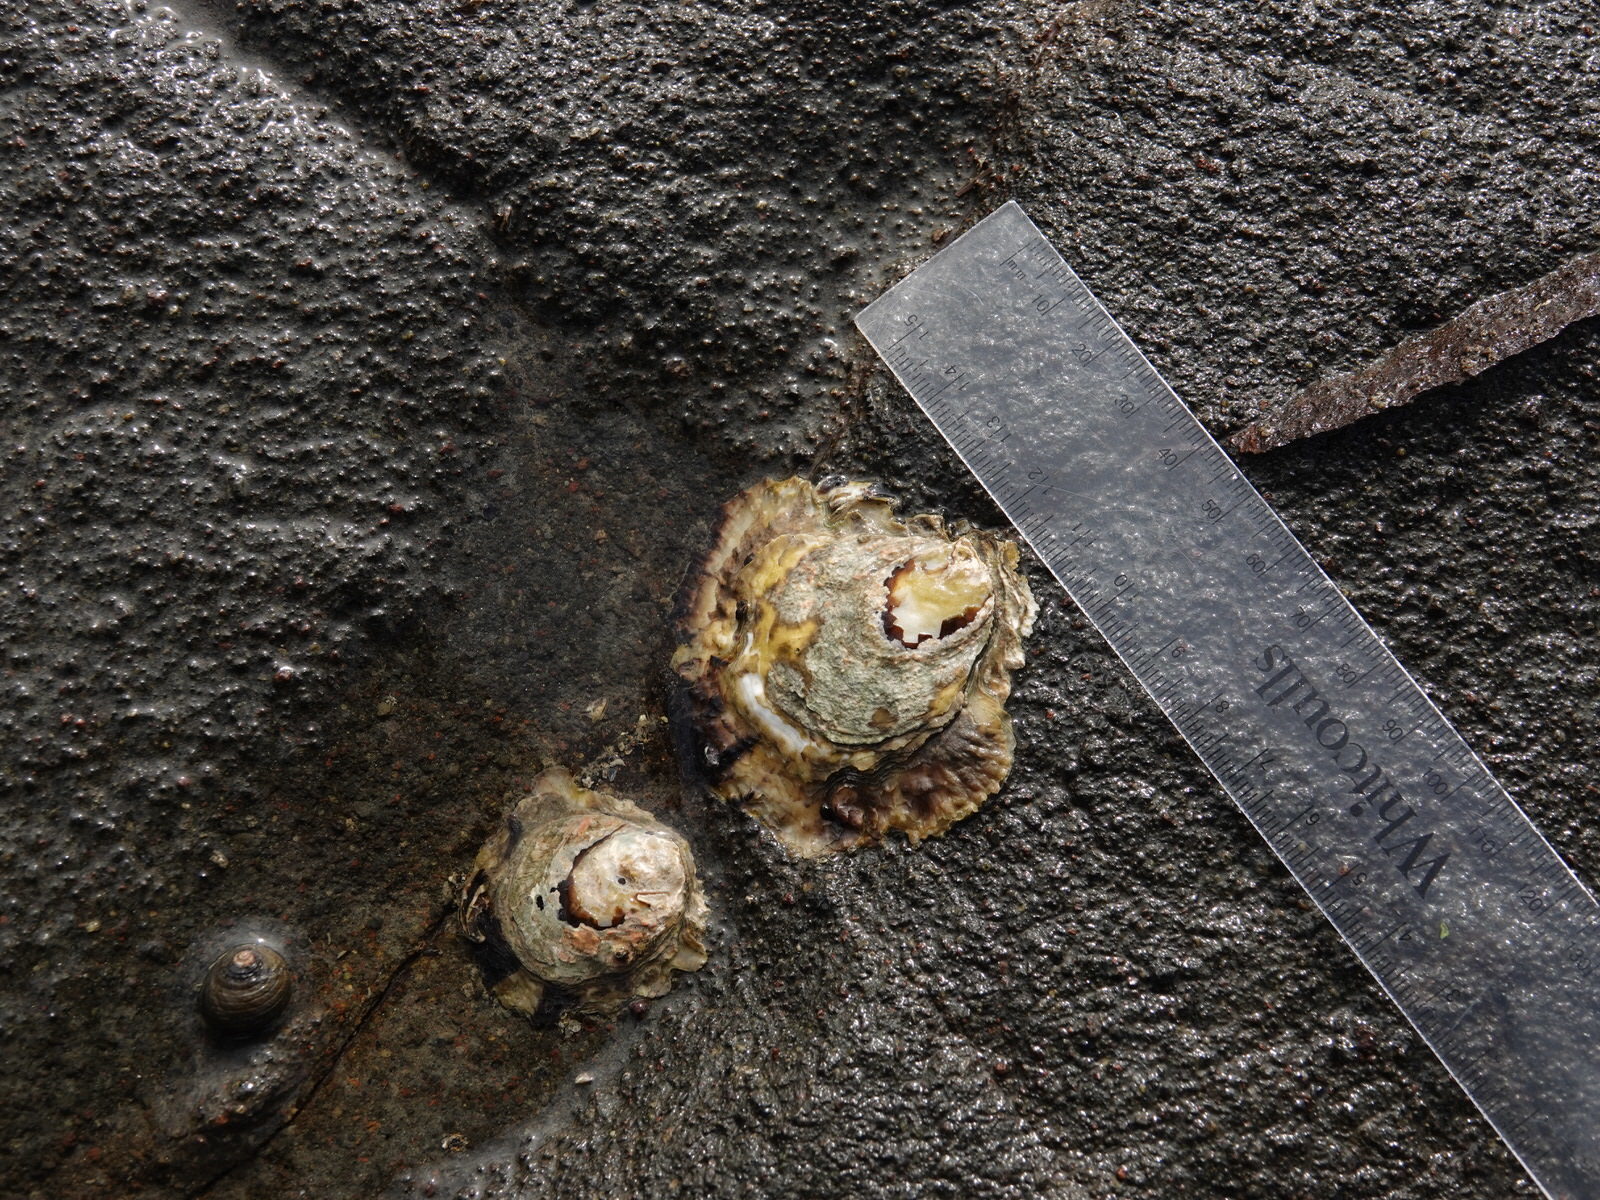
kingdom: Animalia
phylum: Mollusca
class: Bivalvia
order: Ostreida
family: Ostreidae
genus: Magallana
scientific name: Magallana gigas
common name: Pacific oyster
